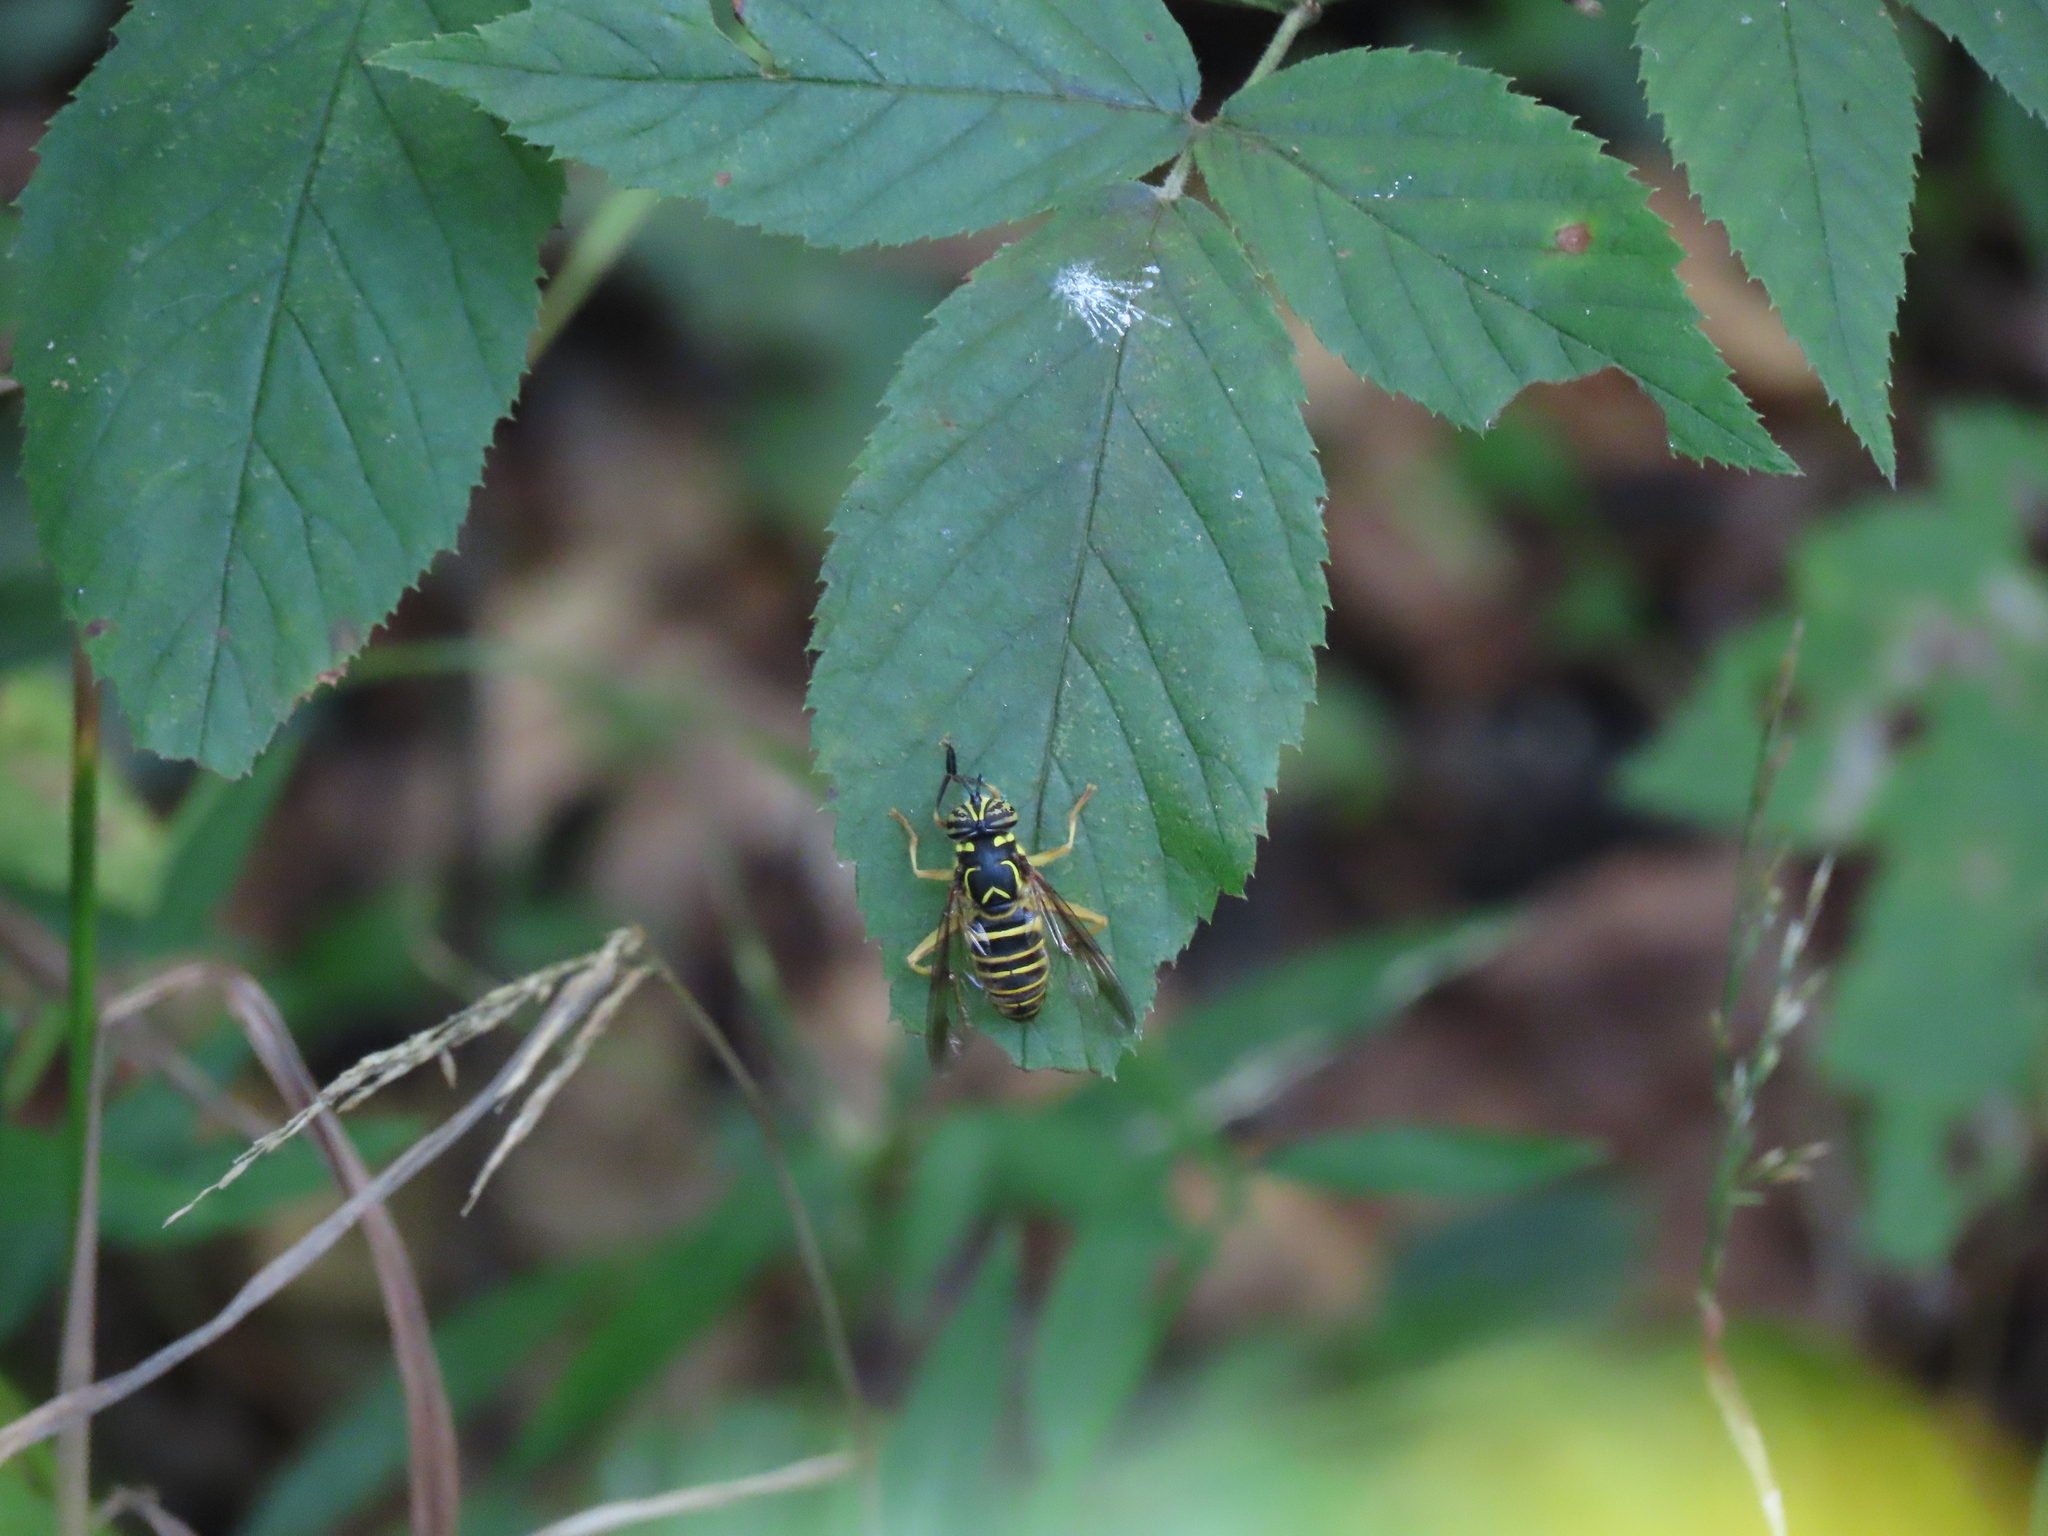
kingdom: Animalia
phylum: Arthropoda
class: Insecta
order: Diptera
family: Syrphidae
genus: Spilomyia
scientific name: Spilomyia longicornis
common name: Eastern hornet fly
